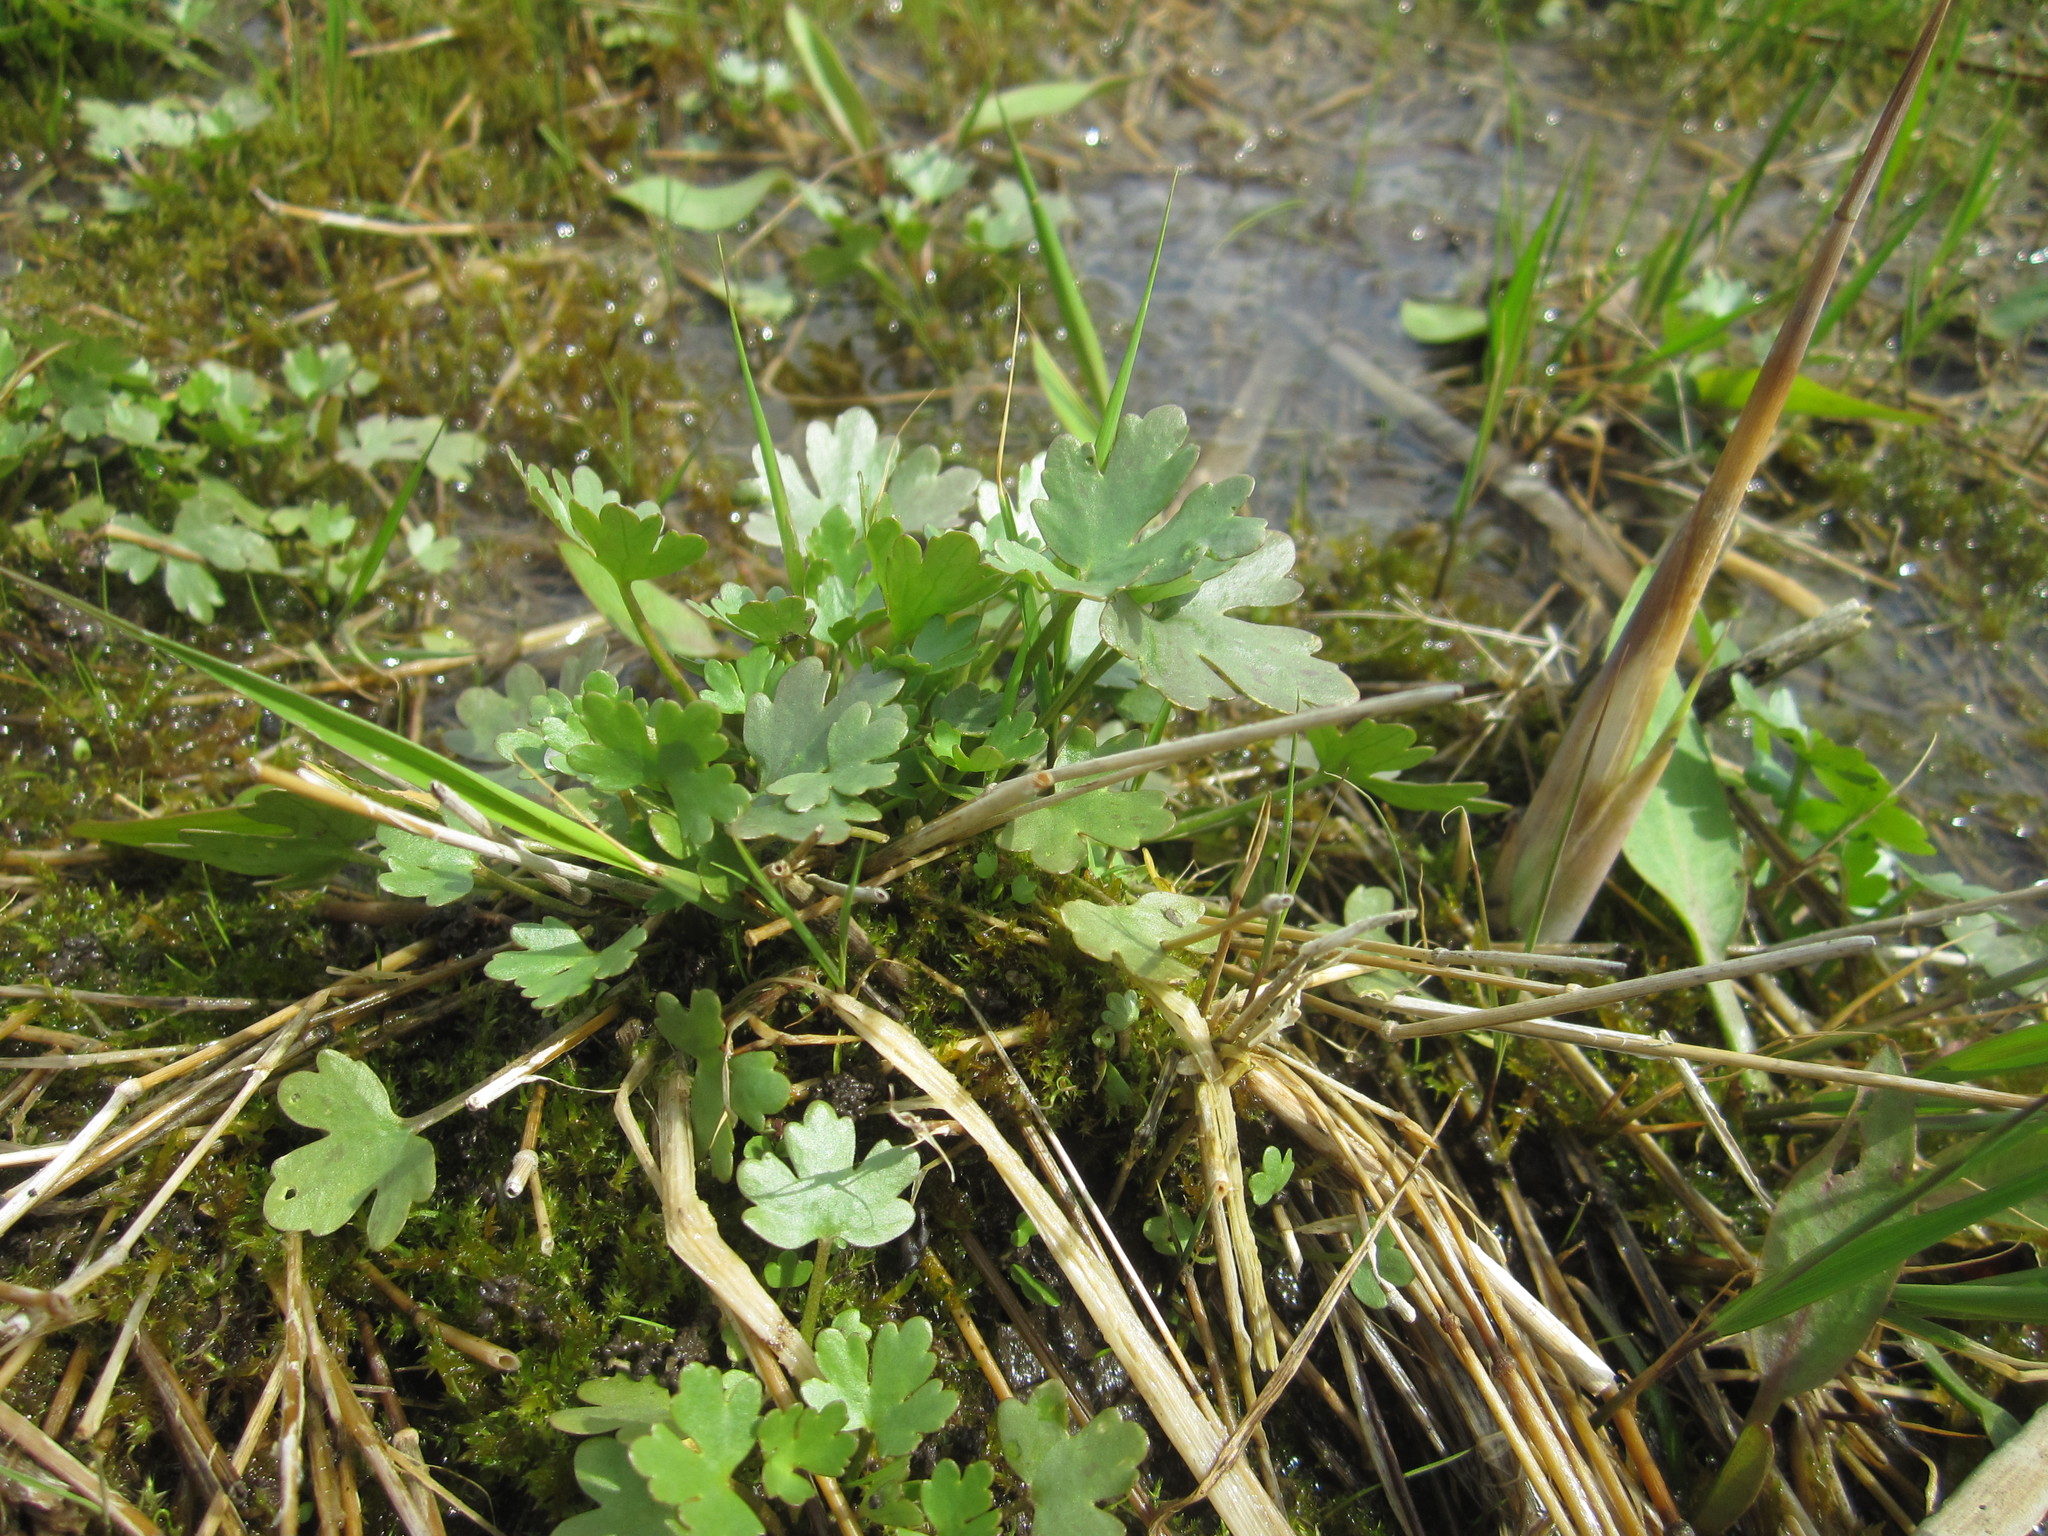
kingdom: Plantae
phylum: Tracheophyta
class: Magnoliopsida
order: Ranunculales
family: Ranunculaceae
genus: Ranunculus
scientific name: Ranunculus sceleratus
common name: Celery-leaved buttercup
